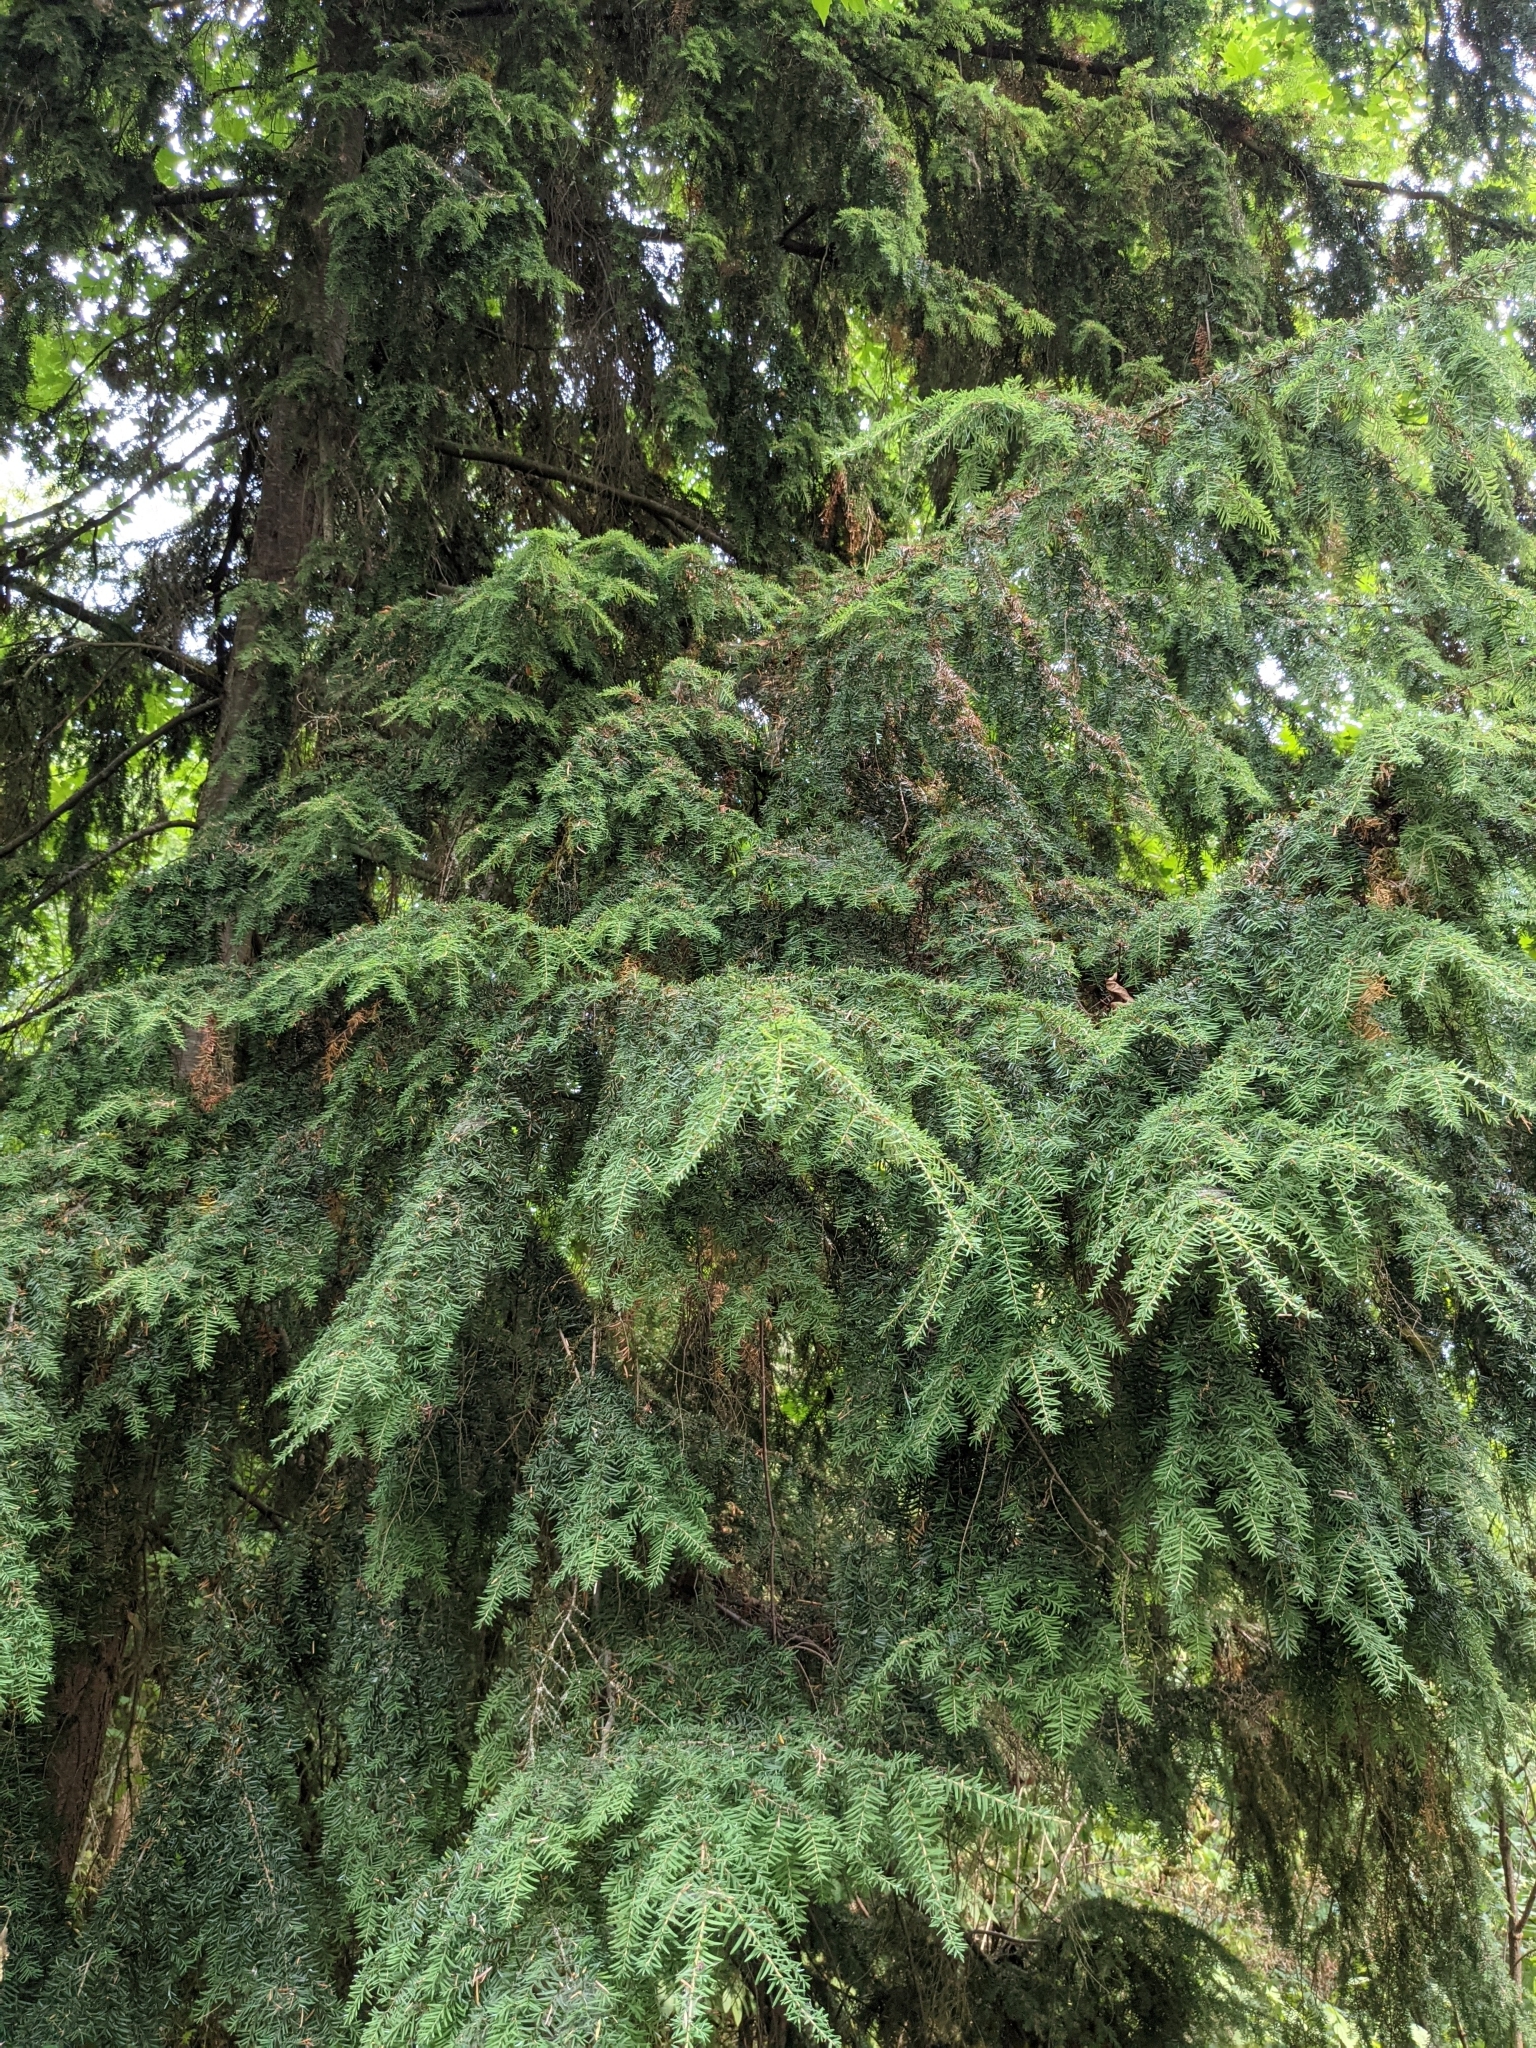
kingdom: Plantae
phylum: Tracheophyta
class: Pinopsida
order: Pinales
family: Pinaceae
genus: Tsuga
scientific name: Tsuga heterophylla
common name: Western hemlock
